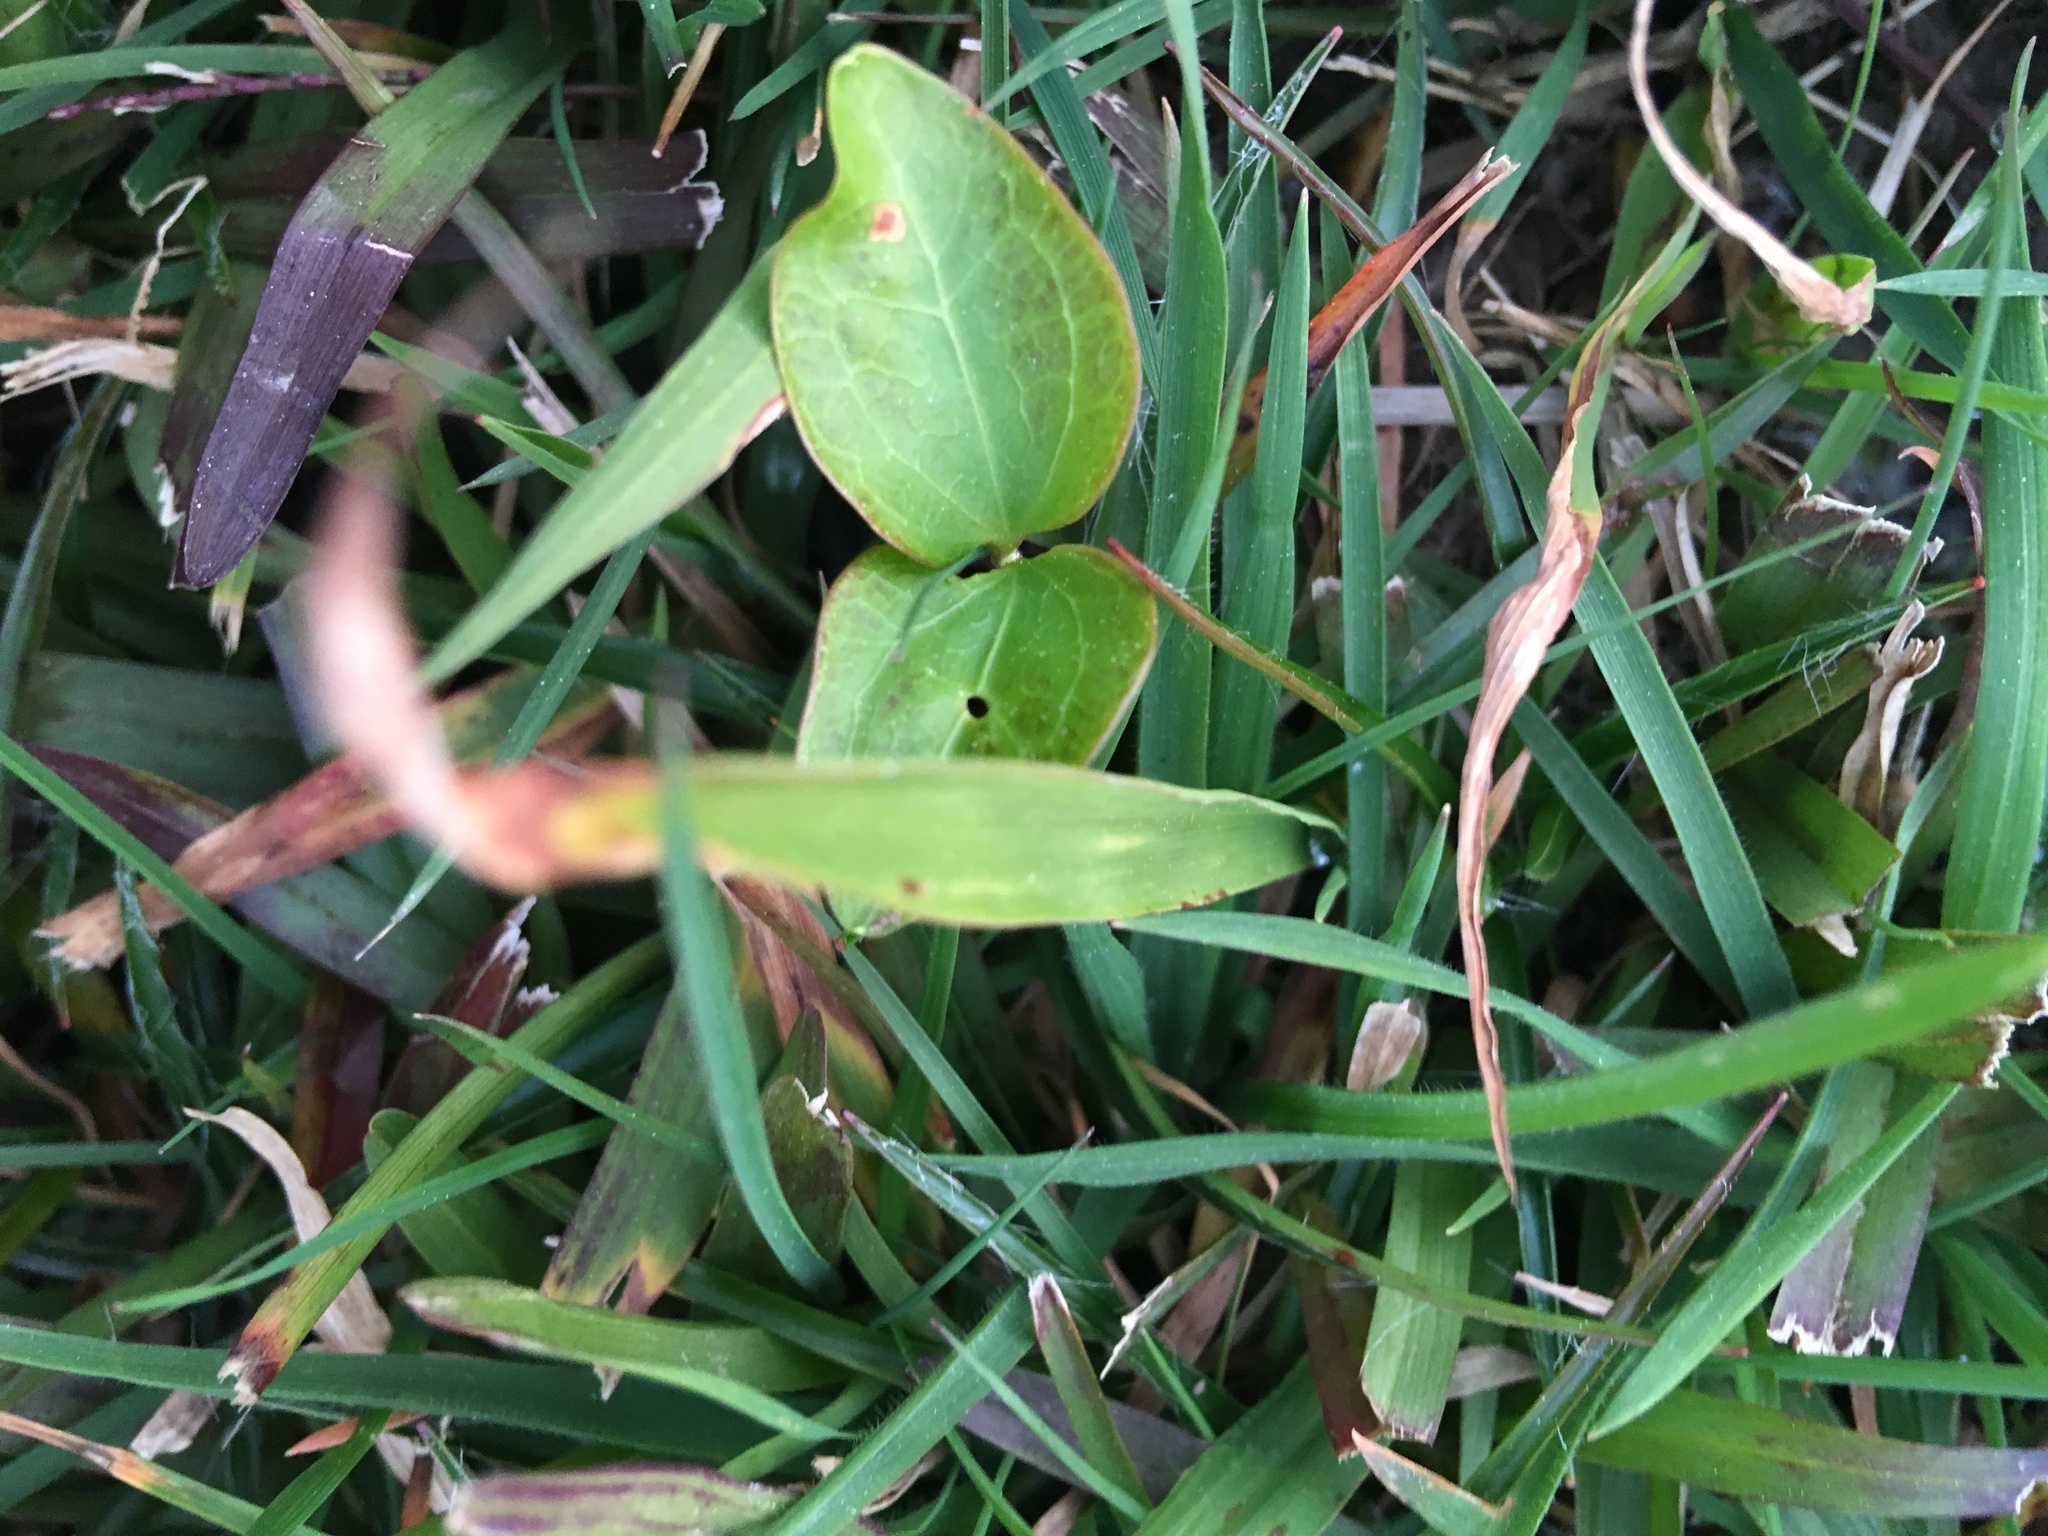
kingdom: Plantae
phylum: Tracheophyta
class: Magnoliopsida
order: Apiales
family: Araliaceae
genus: Hedera
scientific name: Hedera helix
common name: Ivy
